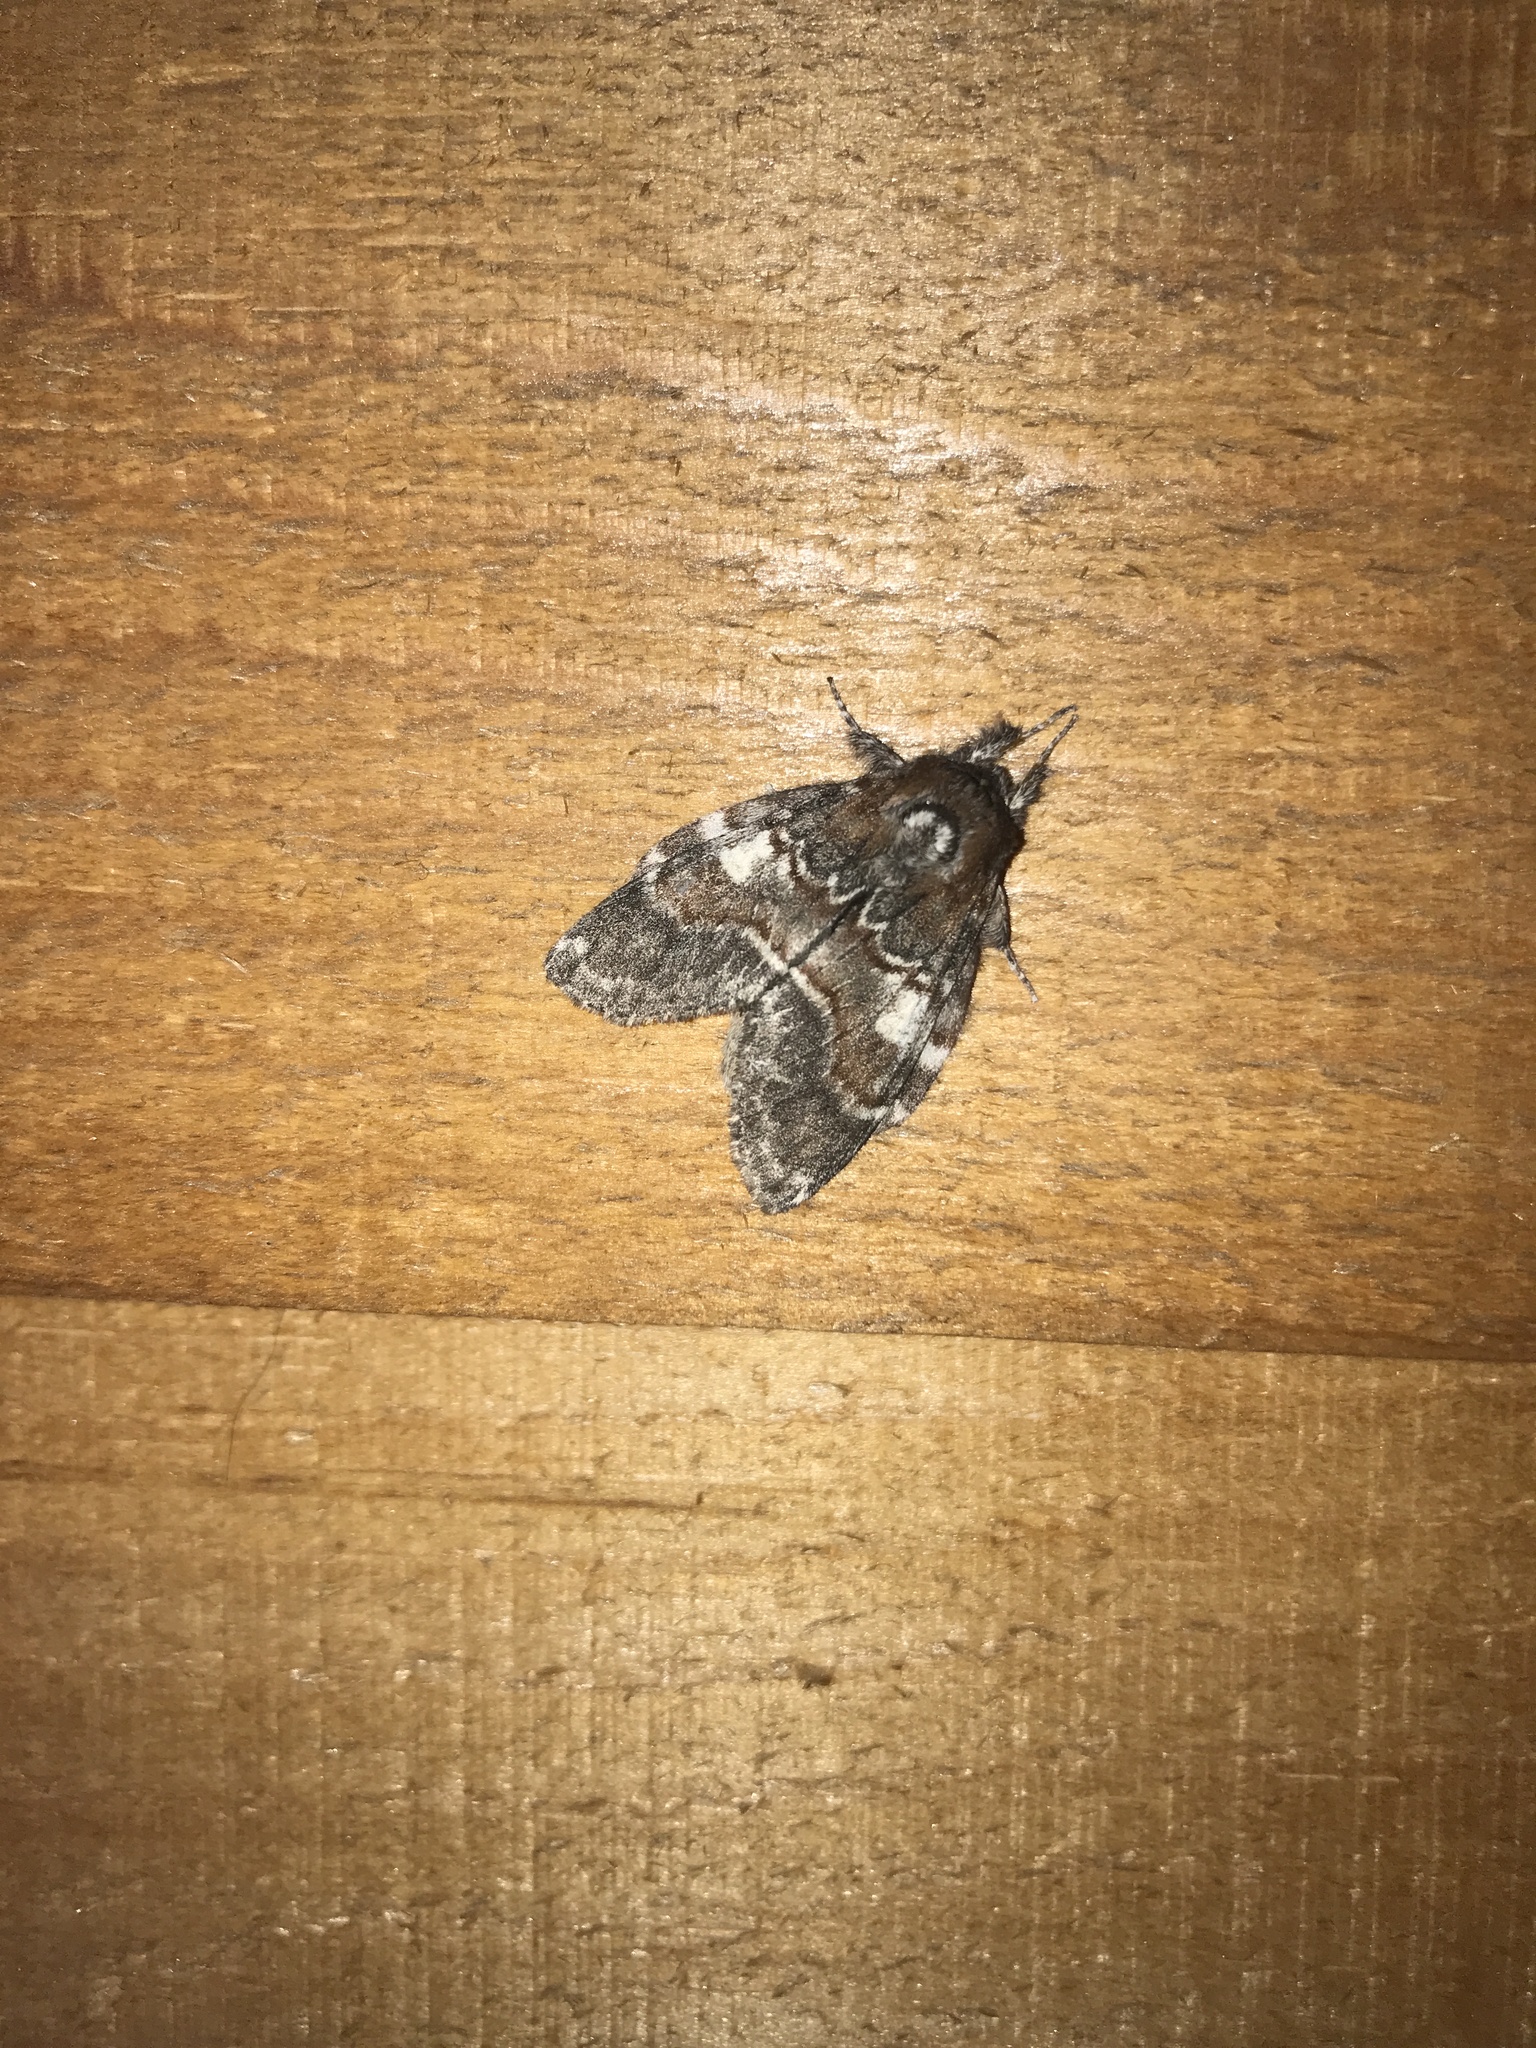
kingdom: Animalia
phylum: Arthropoda
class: Insecta
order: Lepidoptera
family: Notodontidae
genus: Peridea
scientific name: Peridea ferruginea
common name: Chocolate prominent
